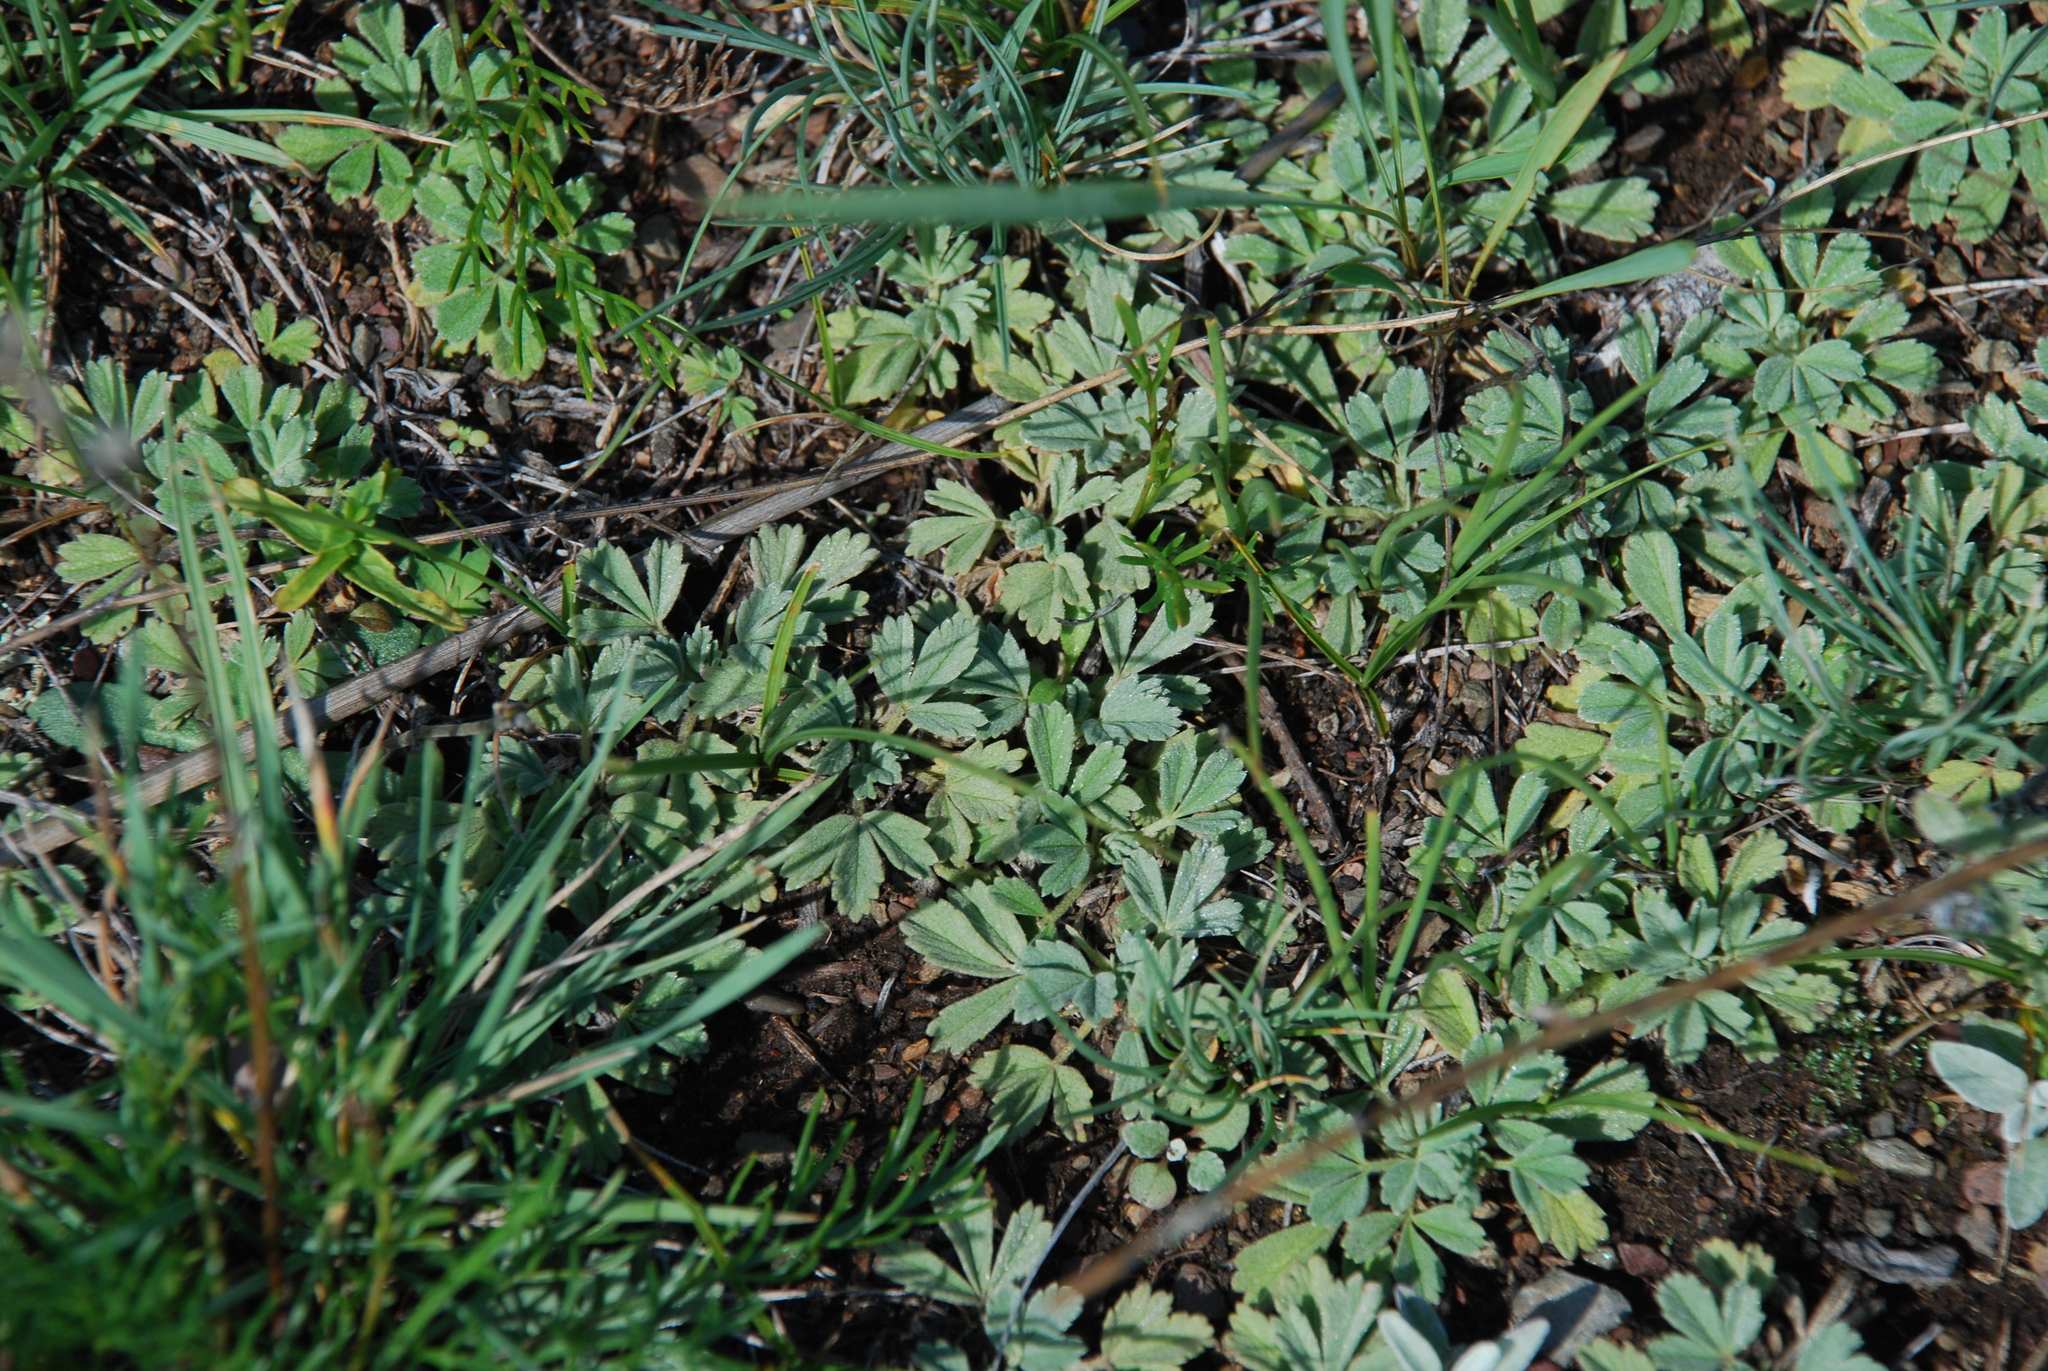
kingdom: Plantae
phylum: Tracheophyta
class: Magnoliopsida
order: Rosales
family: Rosaceae
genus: Potentilla
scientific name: Potentilla acaulis
